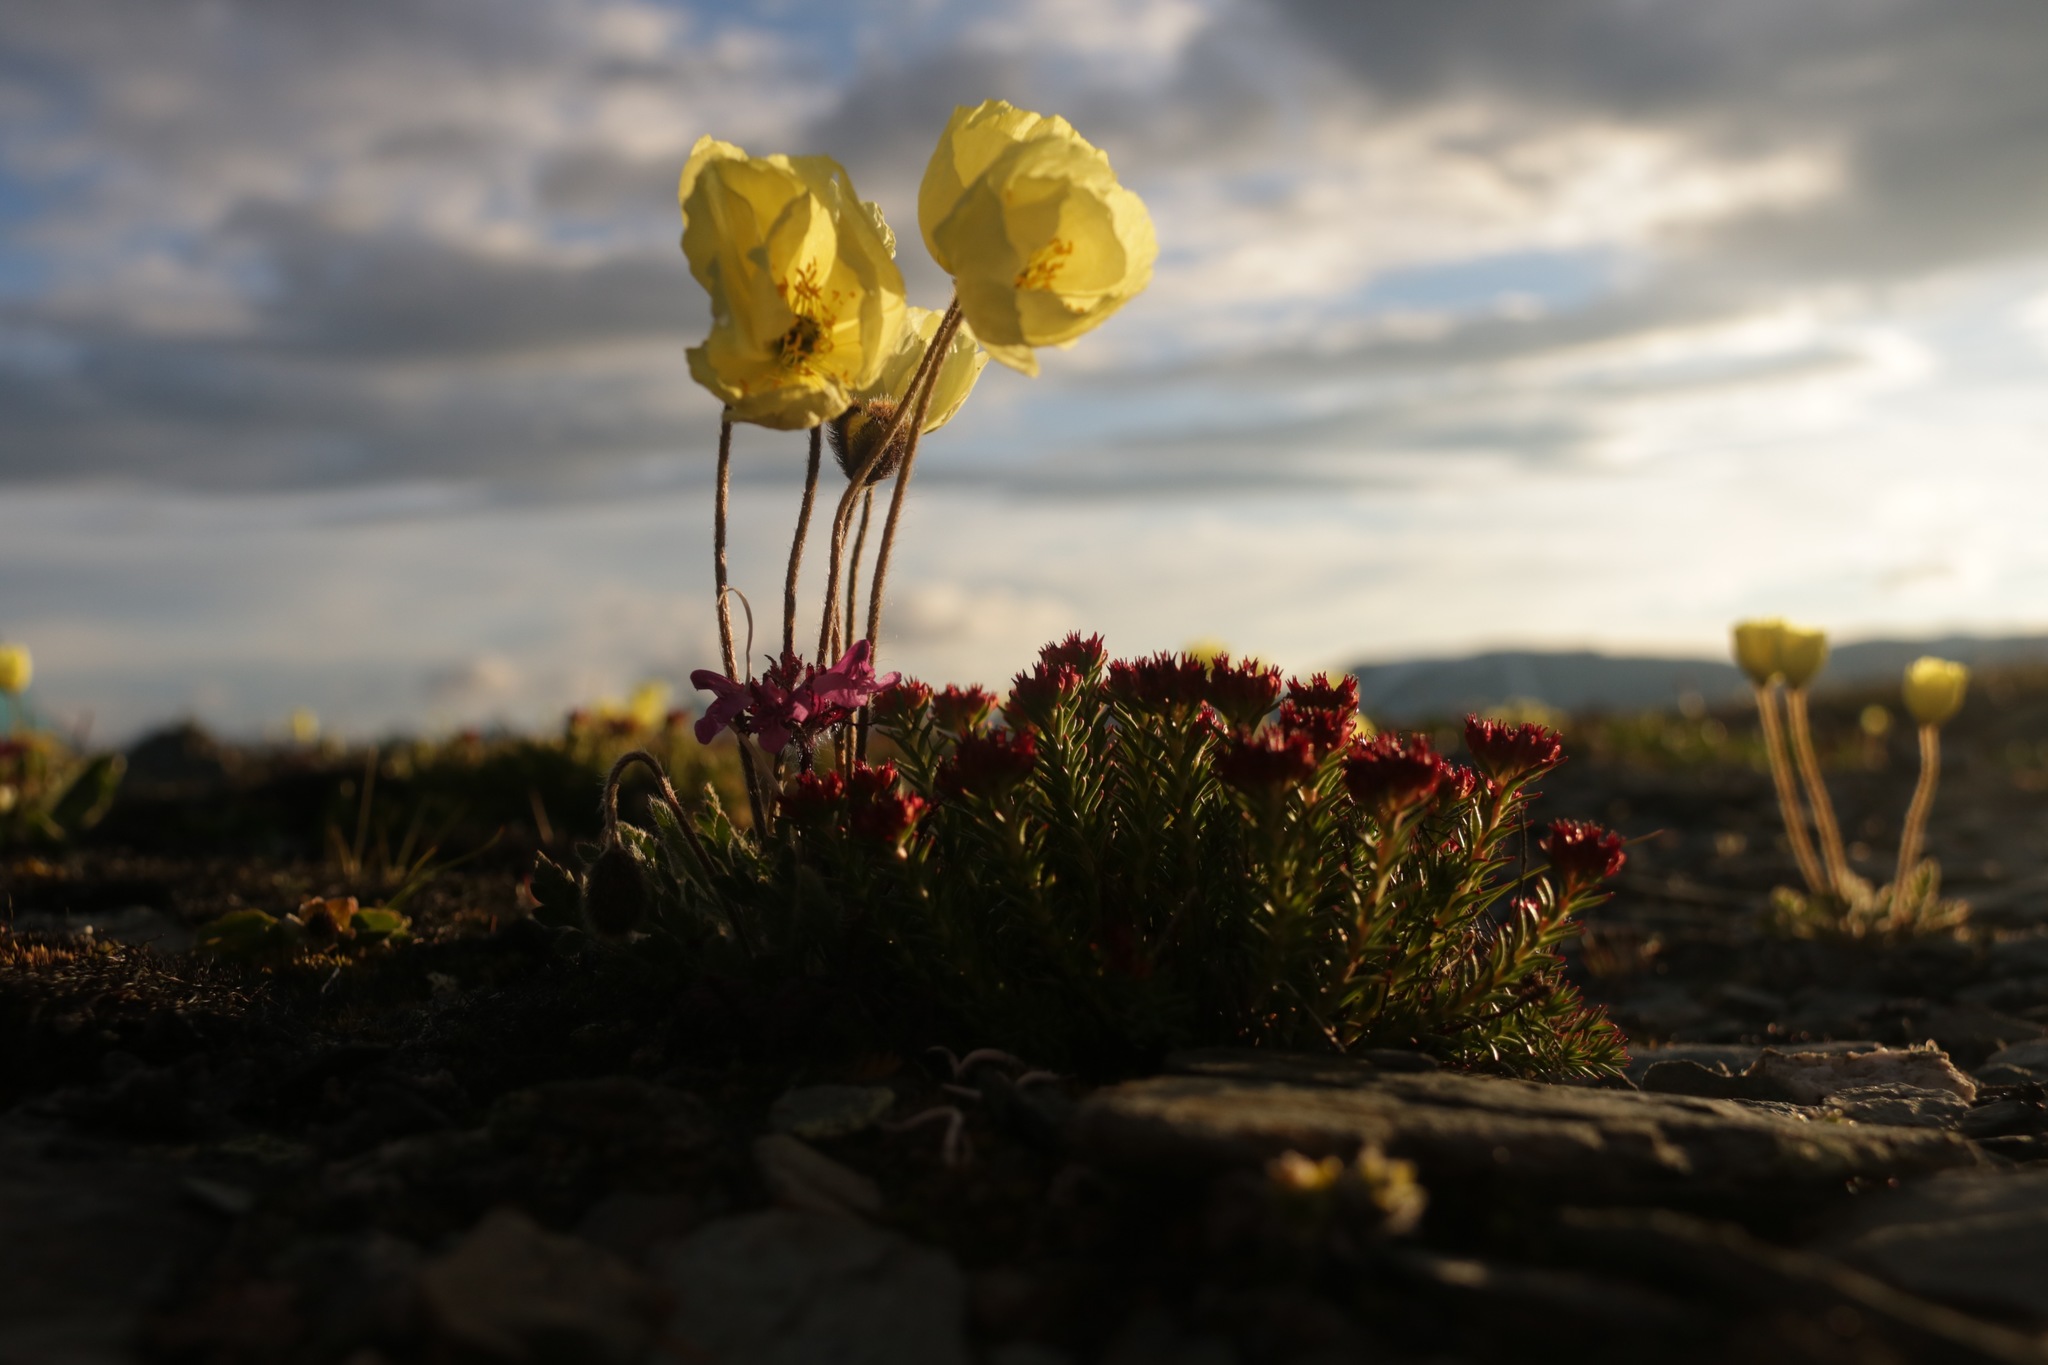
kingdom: Plantae
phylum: Tracheophyta
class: Magnoliopsida
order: Ranunculales
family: Papaveraceae
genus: Papaver
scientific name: Papaver canescens
